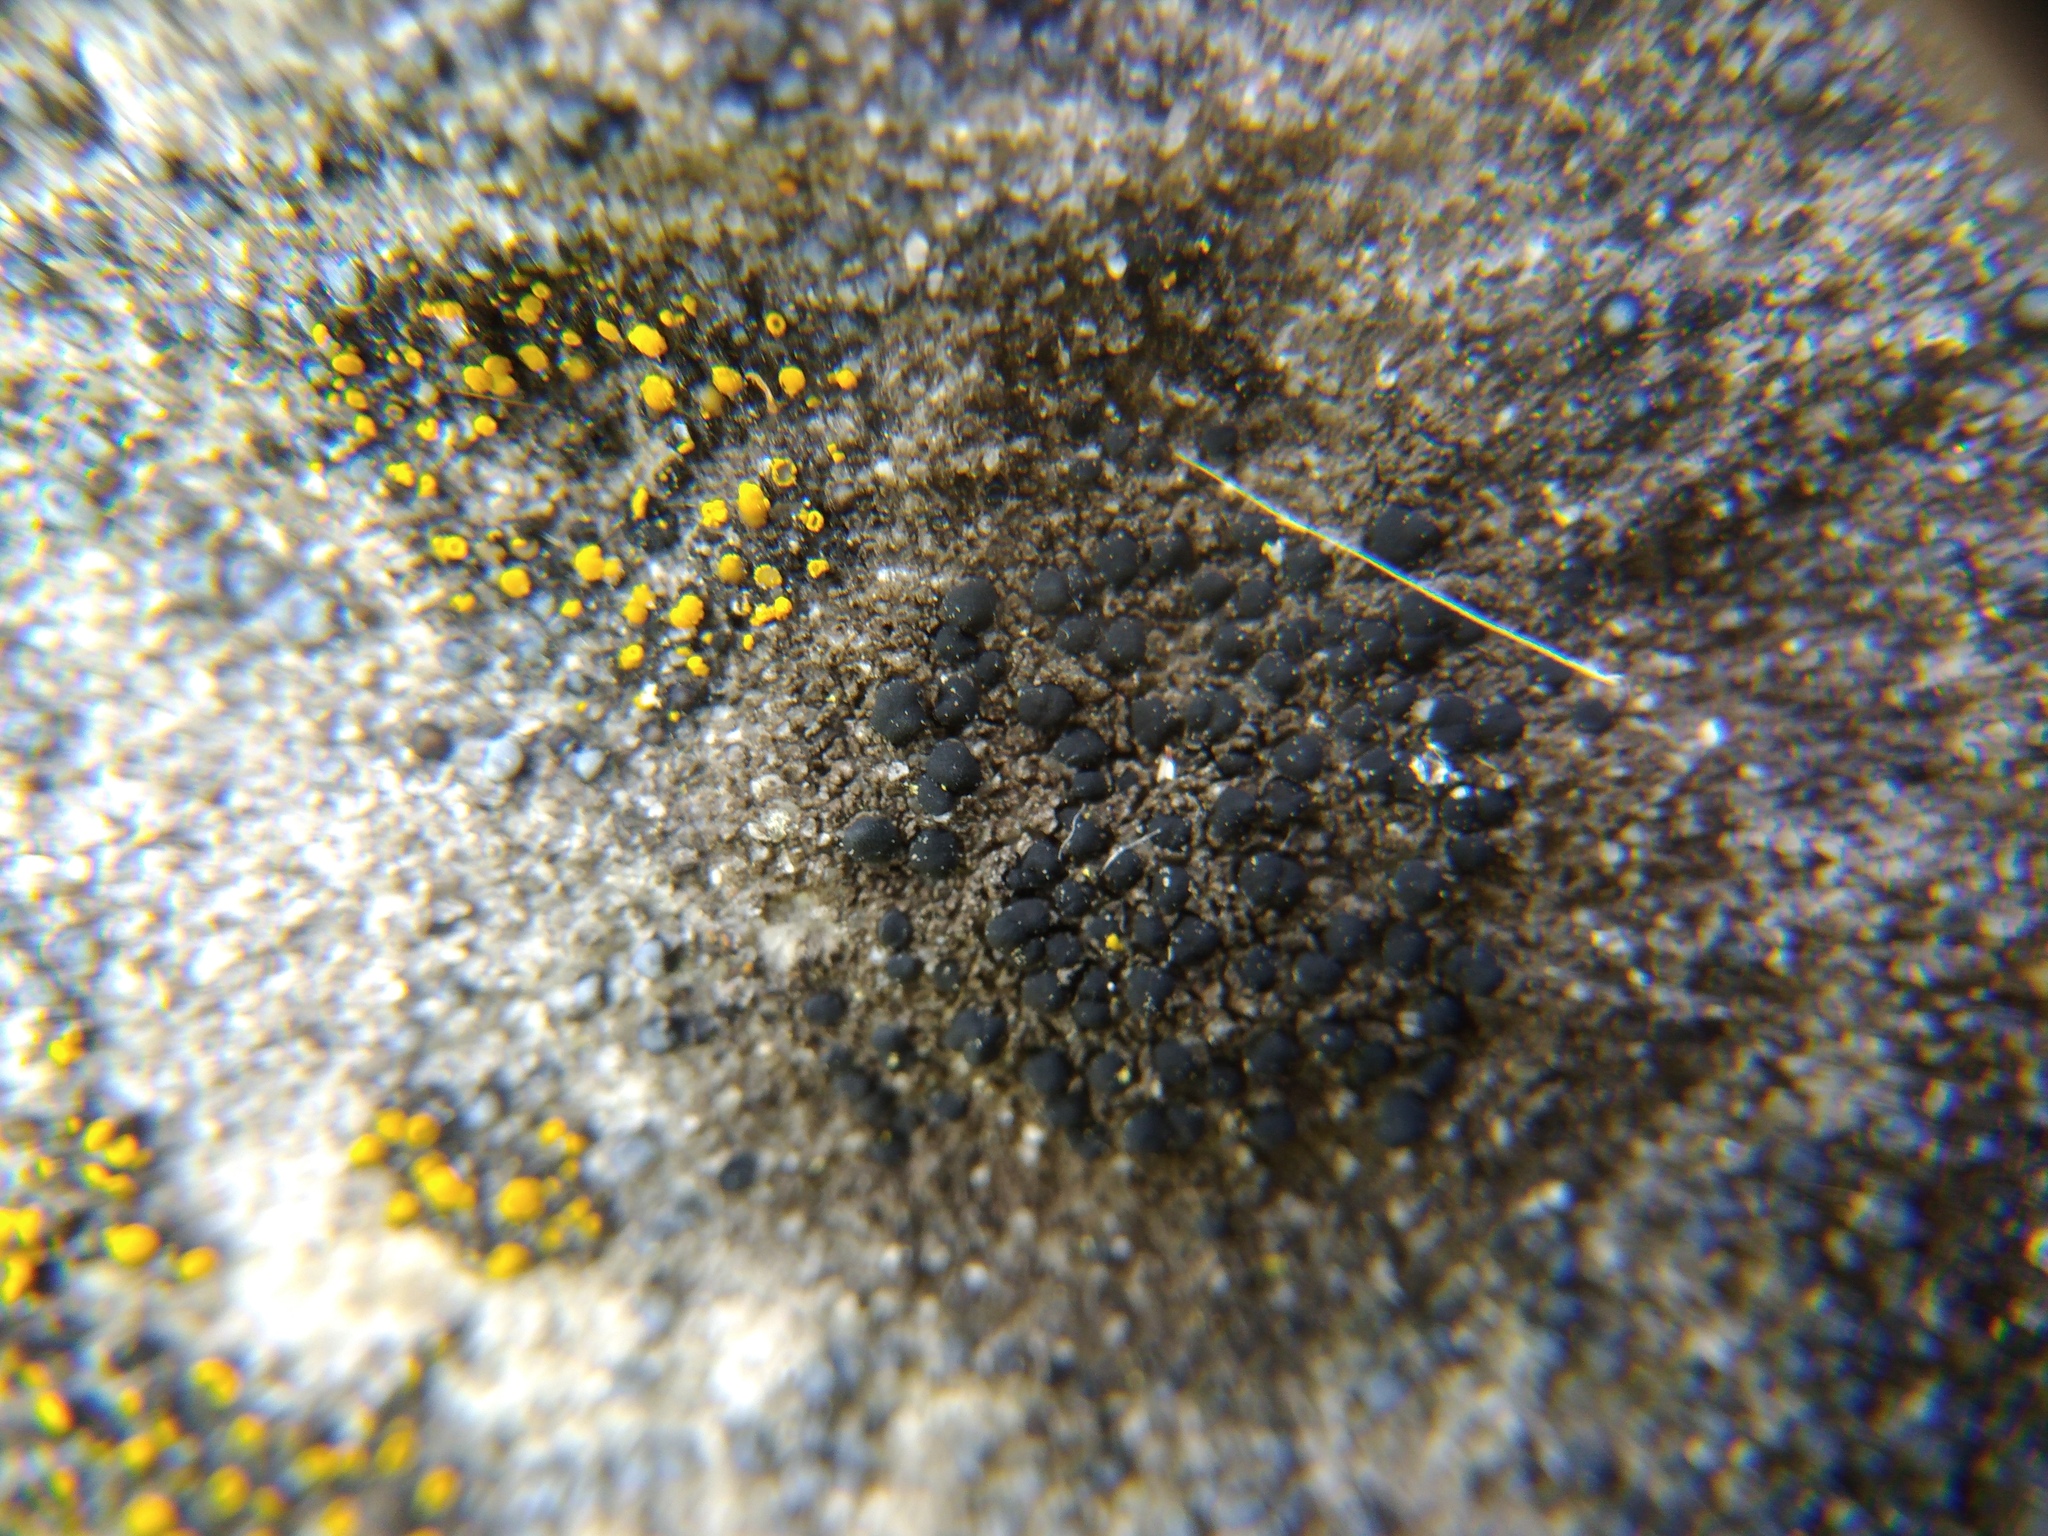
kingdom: Fungi
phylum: Ascomycota
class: Lecanoromycetes
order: Lecanorales
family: Lecanoraceae
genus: Lecidella
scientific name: Lecidella stigmatea
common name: Limestone disc lichen
